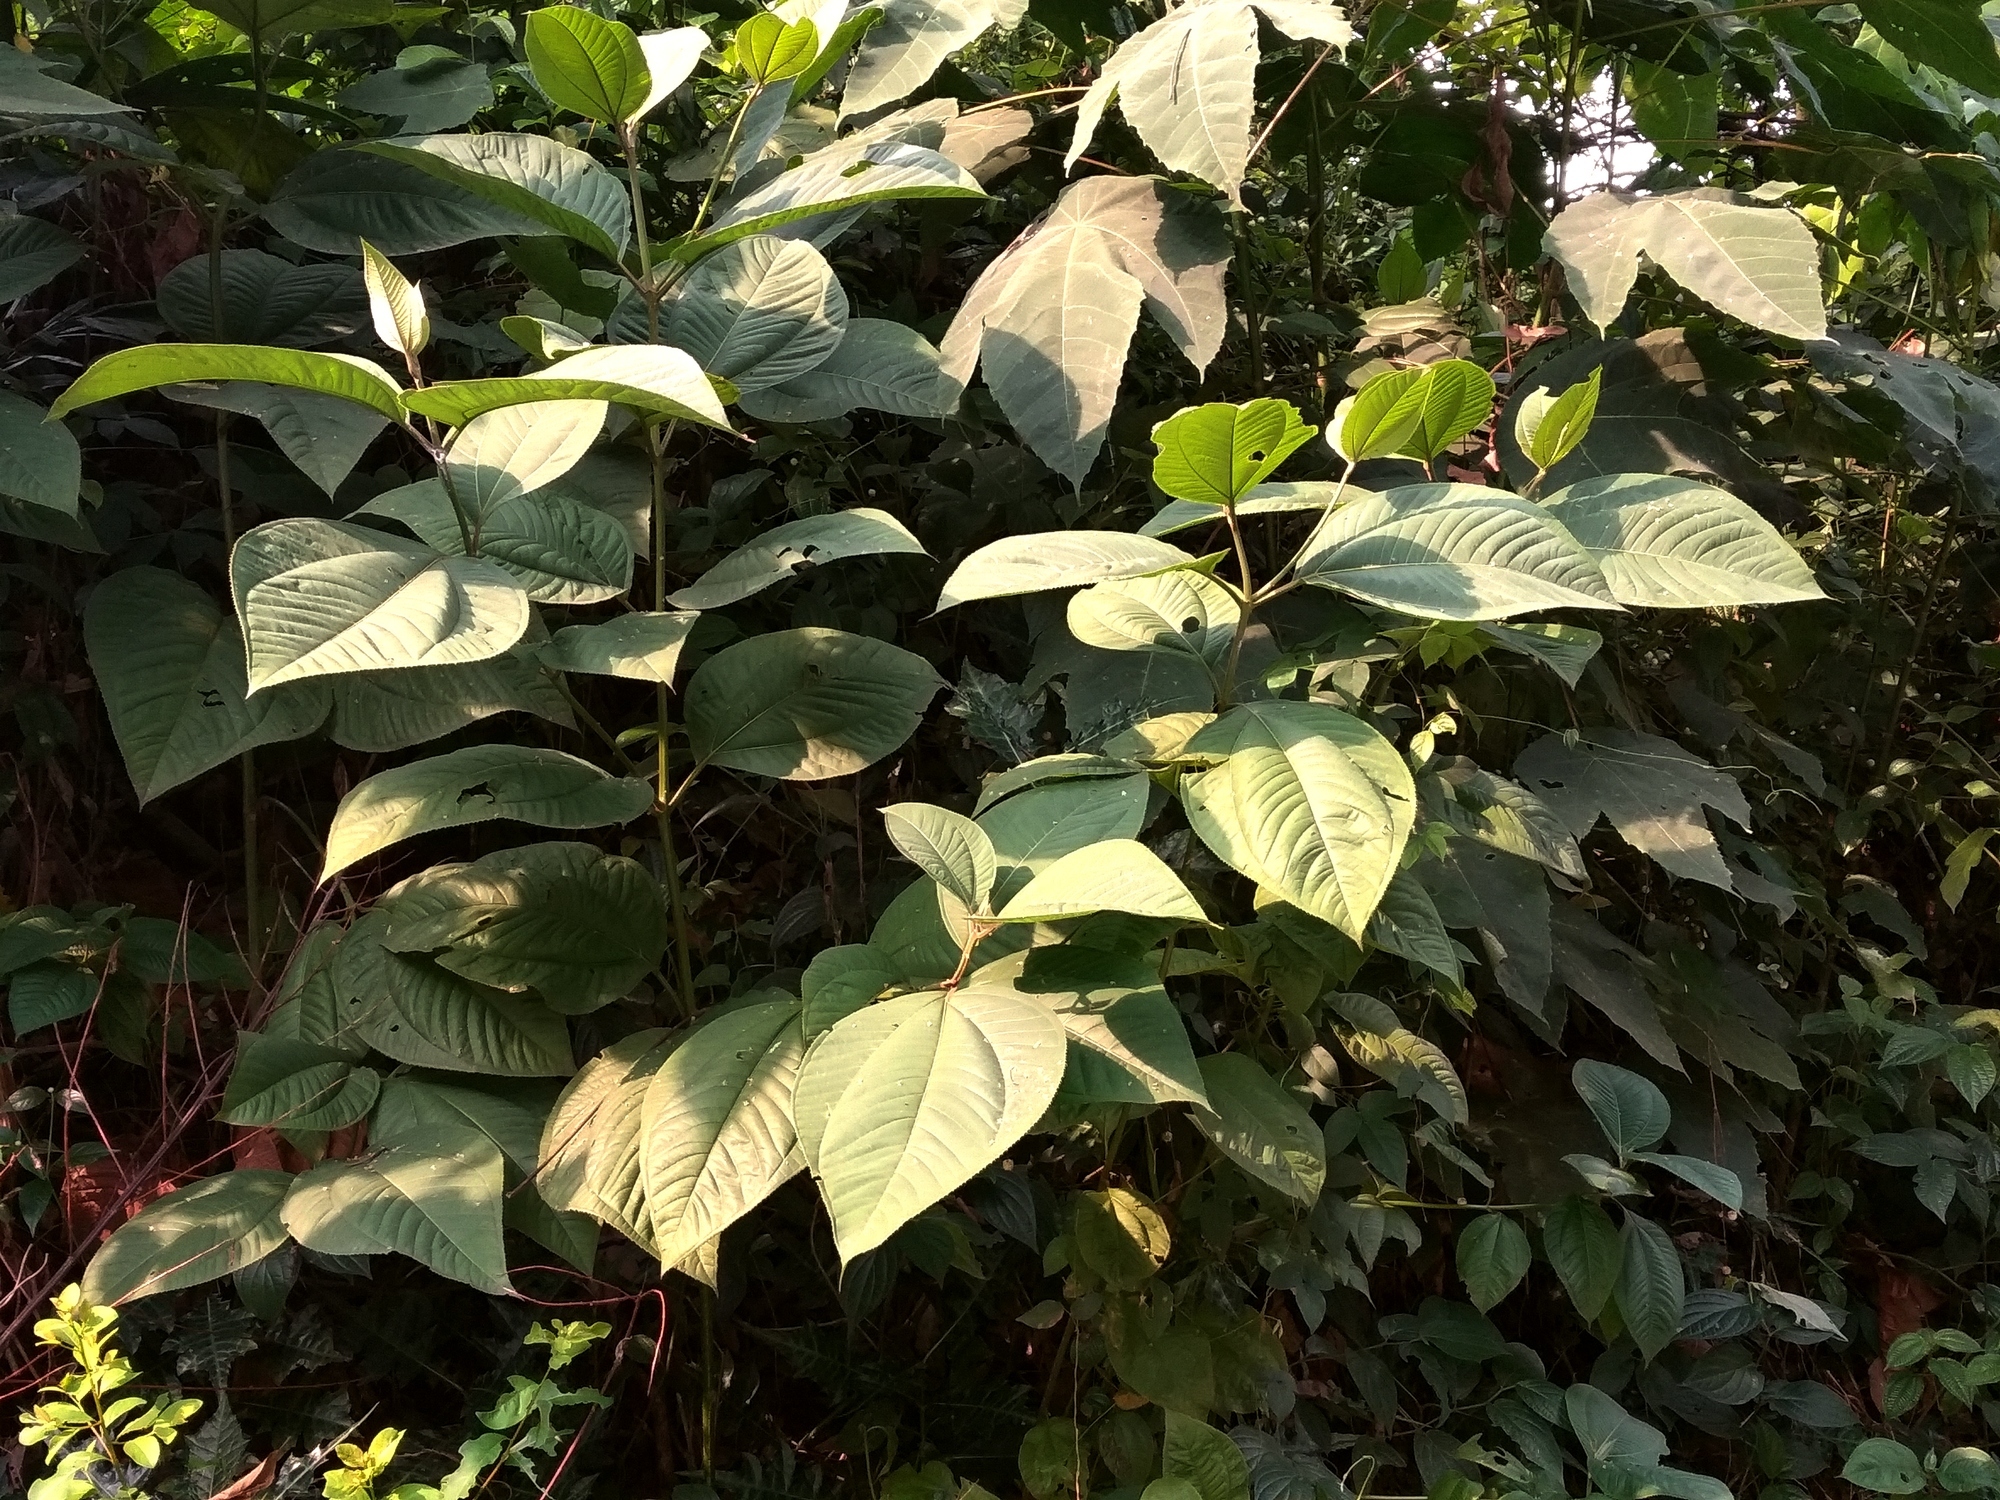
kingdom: Plantae
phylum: Tracheophyta
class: Magnoliopsida
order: Myrtales
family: Melastomataceae
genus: Bellucia
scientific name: Bellucia pentamera
